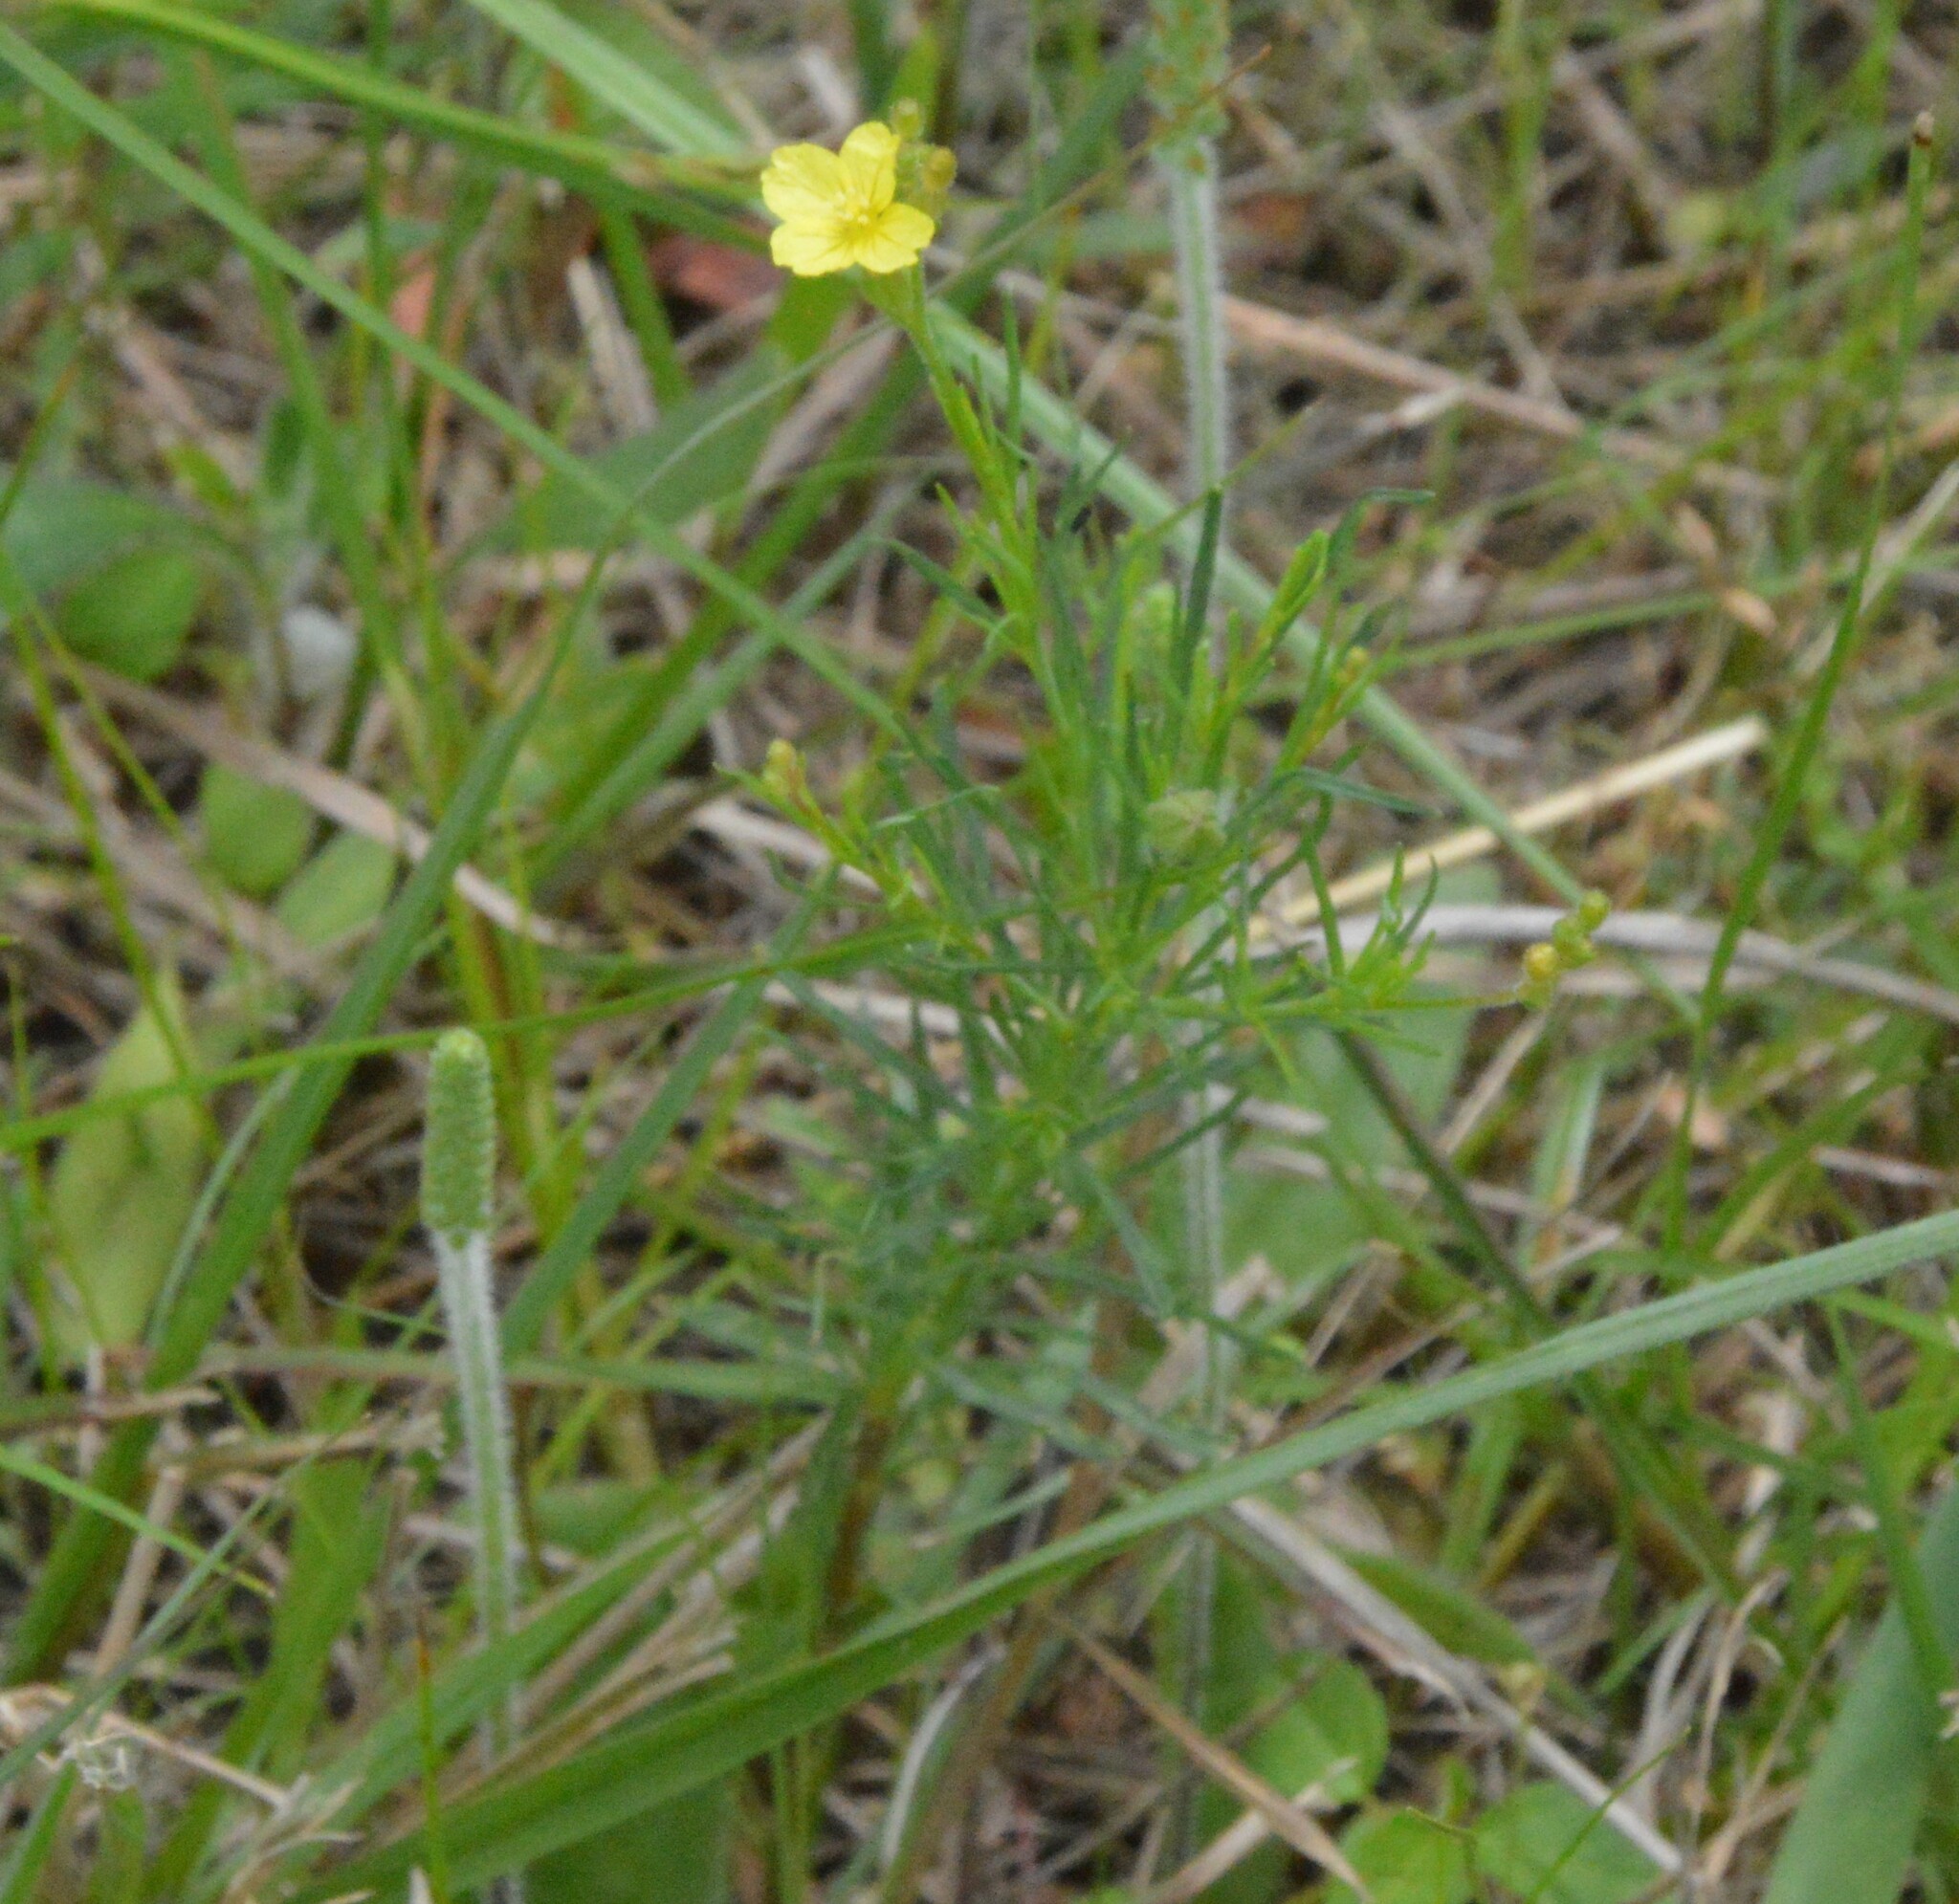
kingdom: Plantae
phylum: Tracheophyta
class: Magnoliopsida
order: Myrtales
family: Onagraceae
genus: Oenothera
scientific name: Oenothera linifolia
